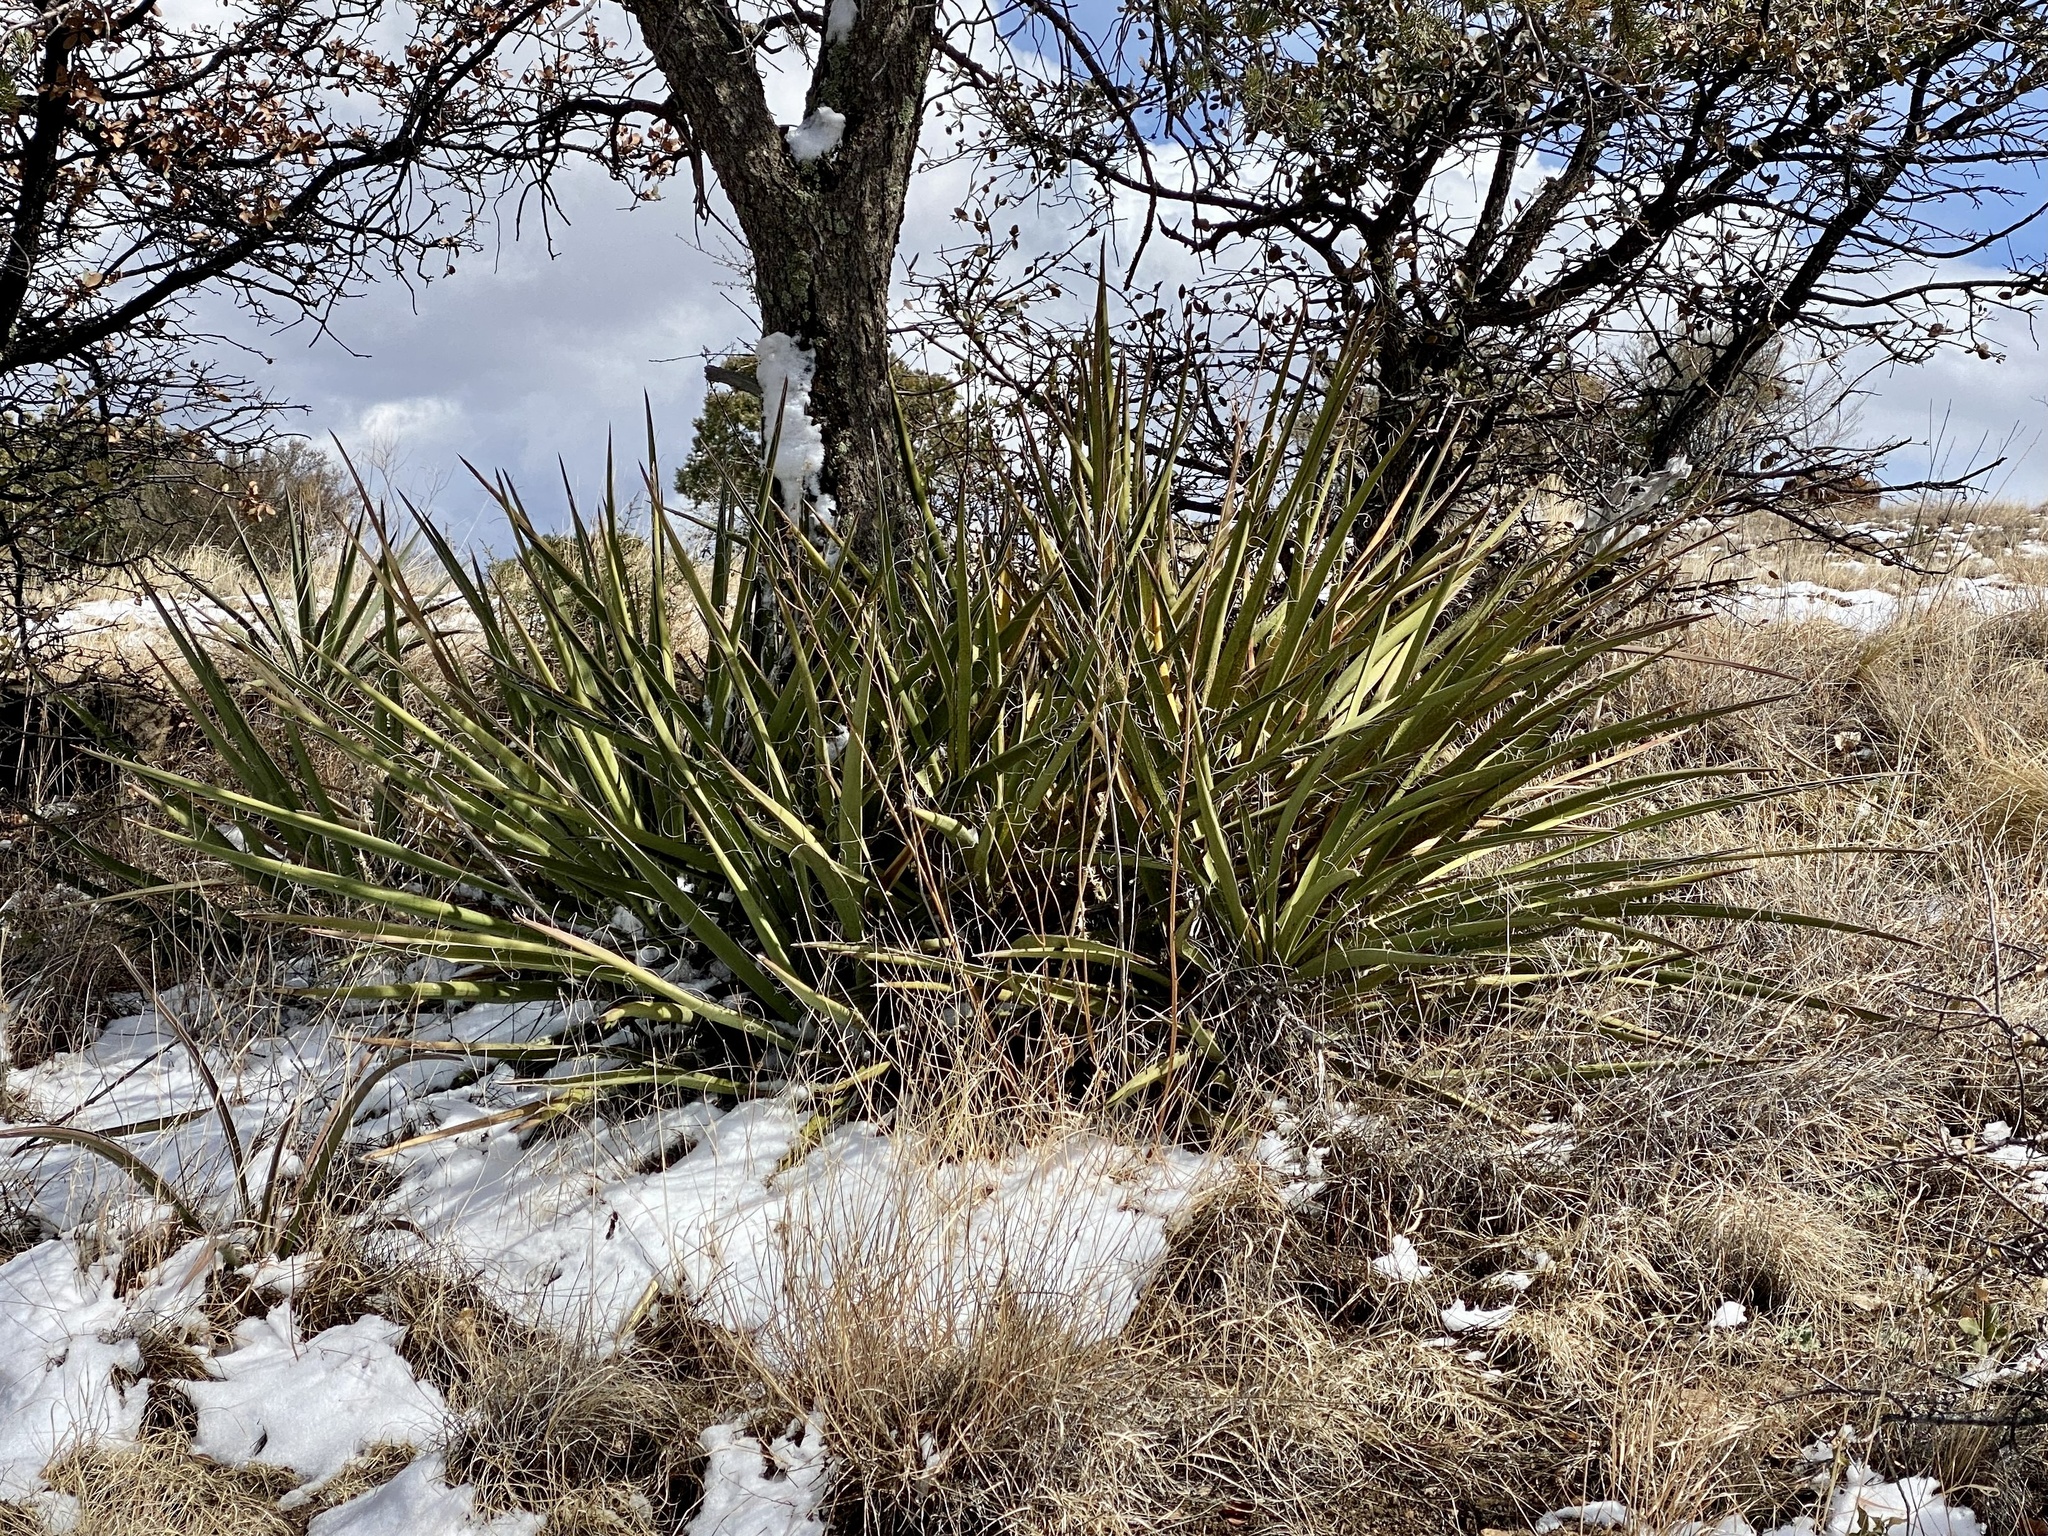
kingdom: Plantae
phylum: Tracheophyta
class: Liliopsida
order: Asparagales
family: Asparagaceae
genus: Yucca
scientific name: Yucca baccata
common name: Banana yucca
